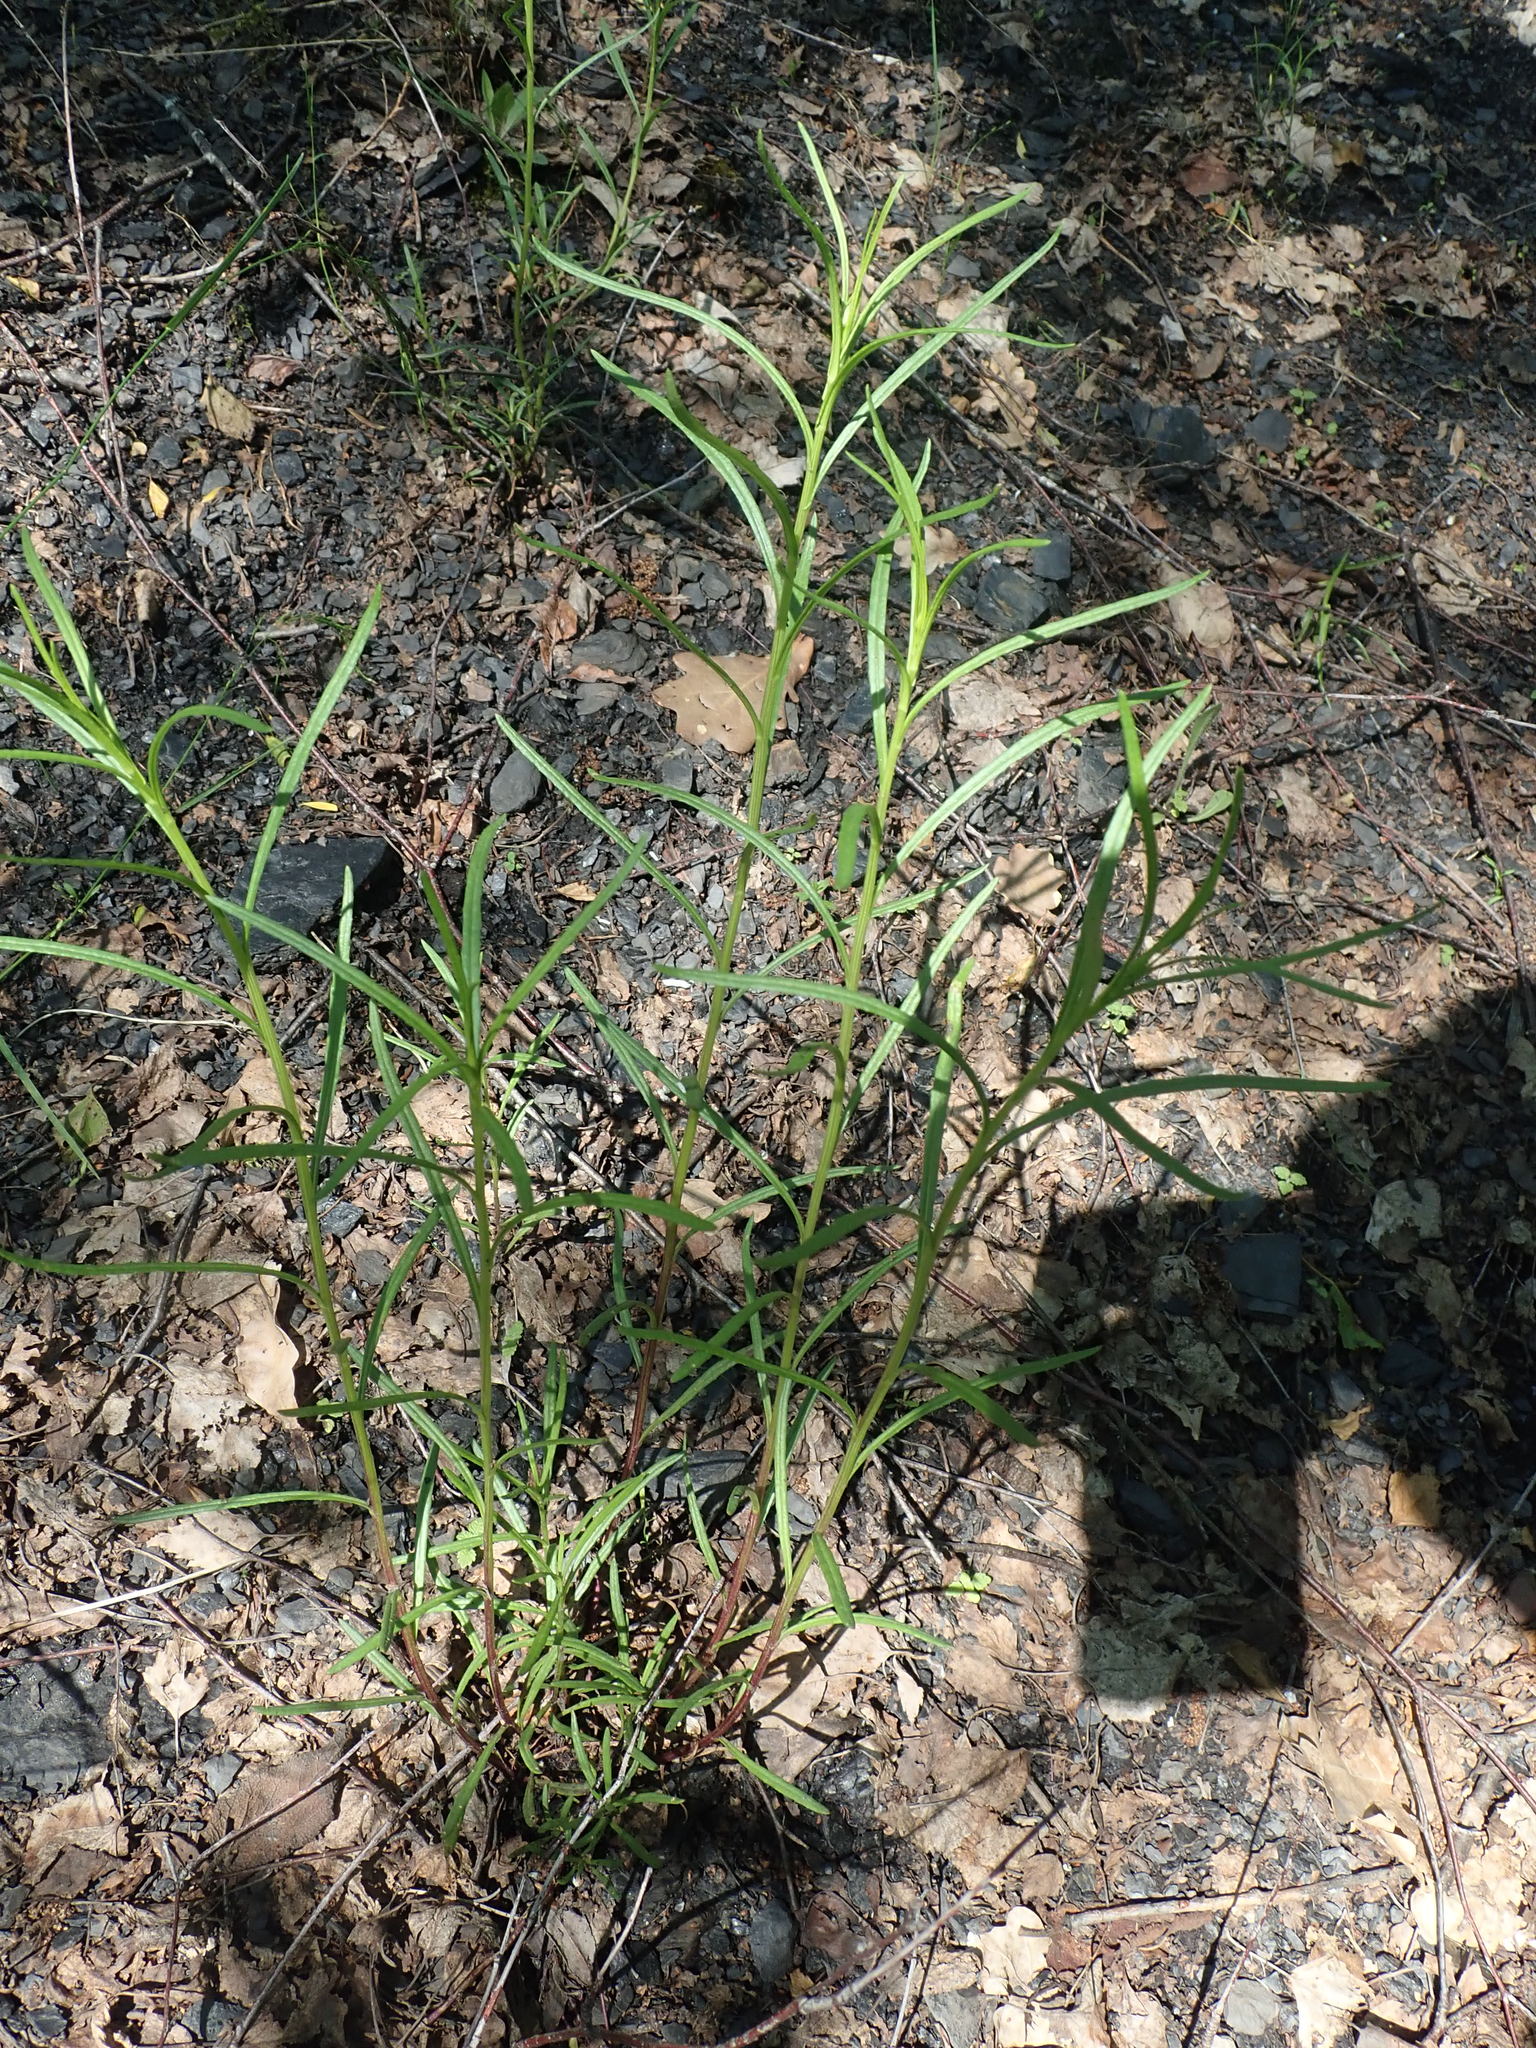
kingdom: Plantae
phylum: Tracheophyta
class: Magnoliopsida
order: Asterales
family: Asteraceae
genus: Senecio
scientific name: Senecio inaequidens
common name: Narrow-leaved ragwort
